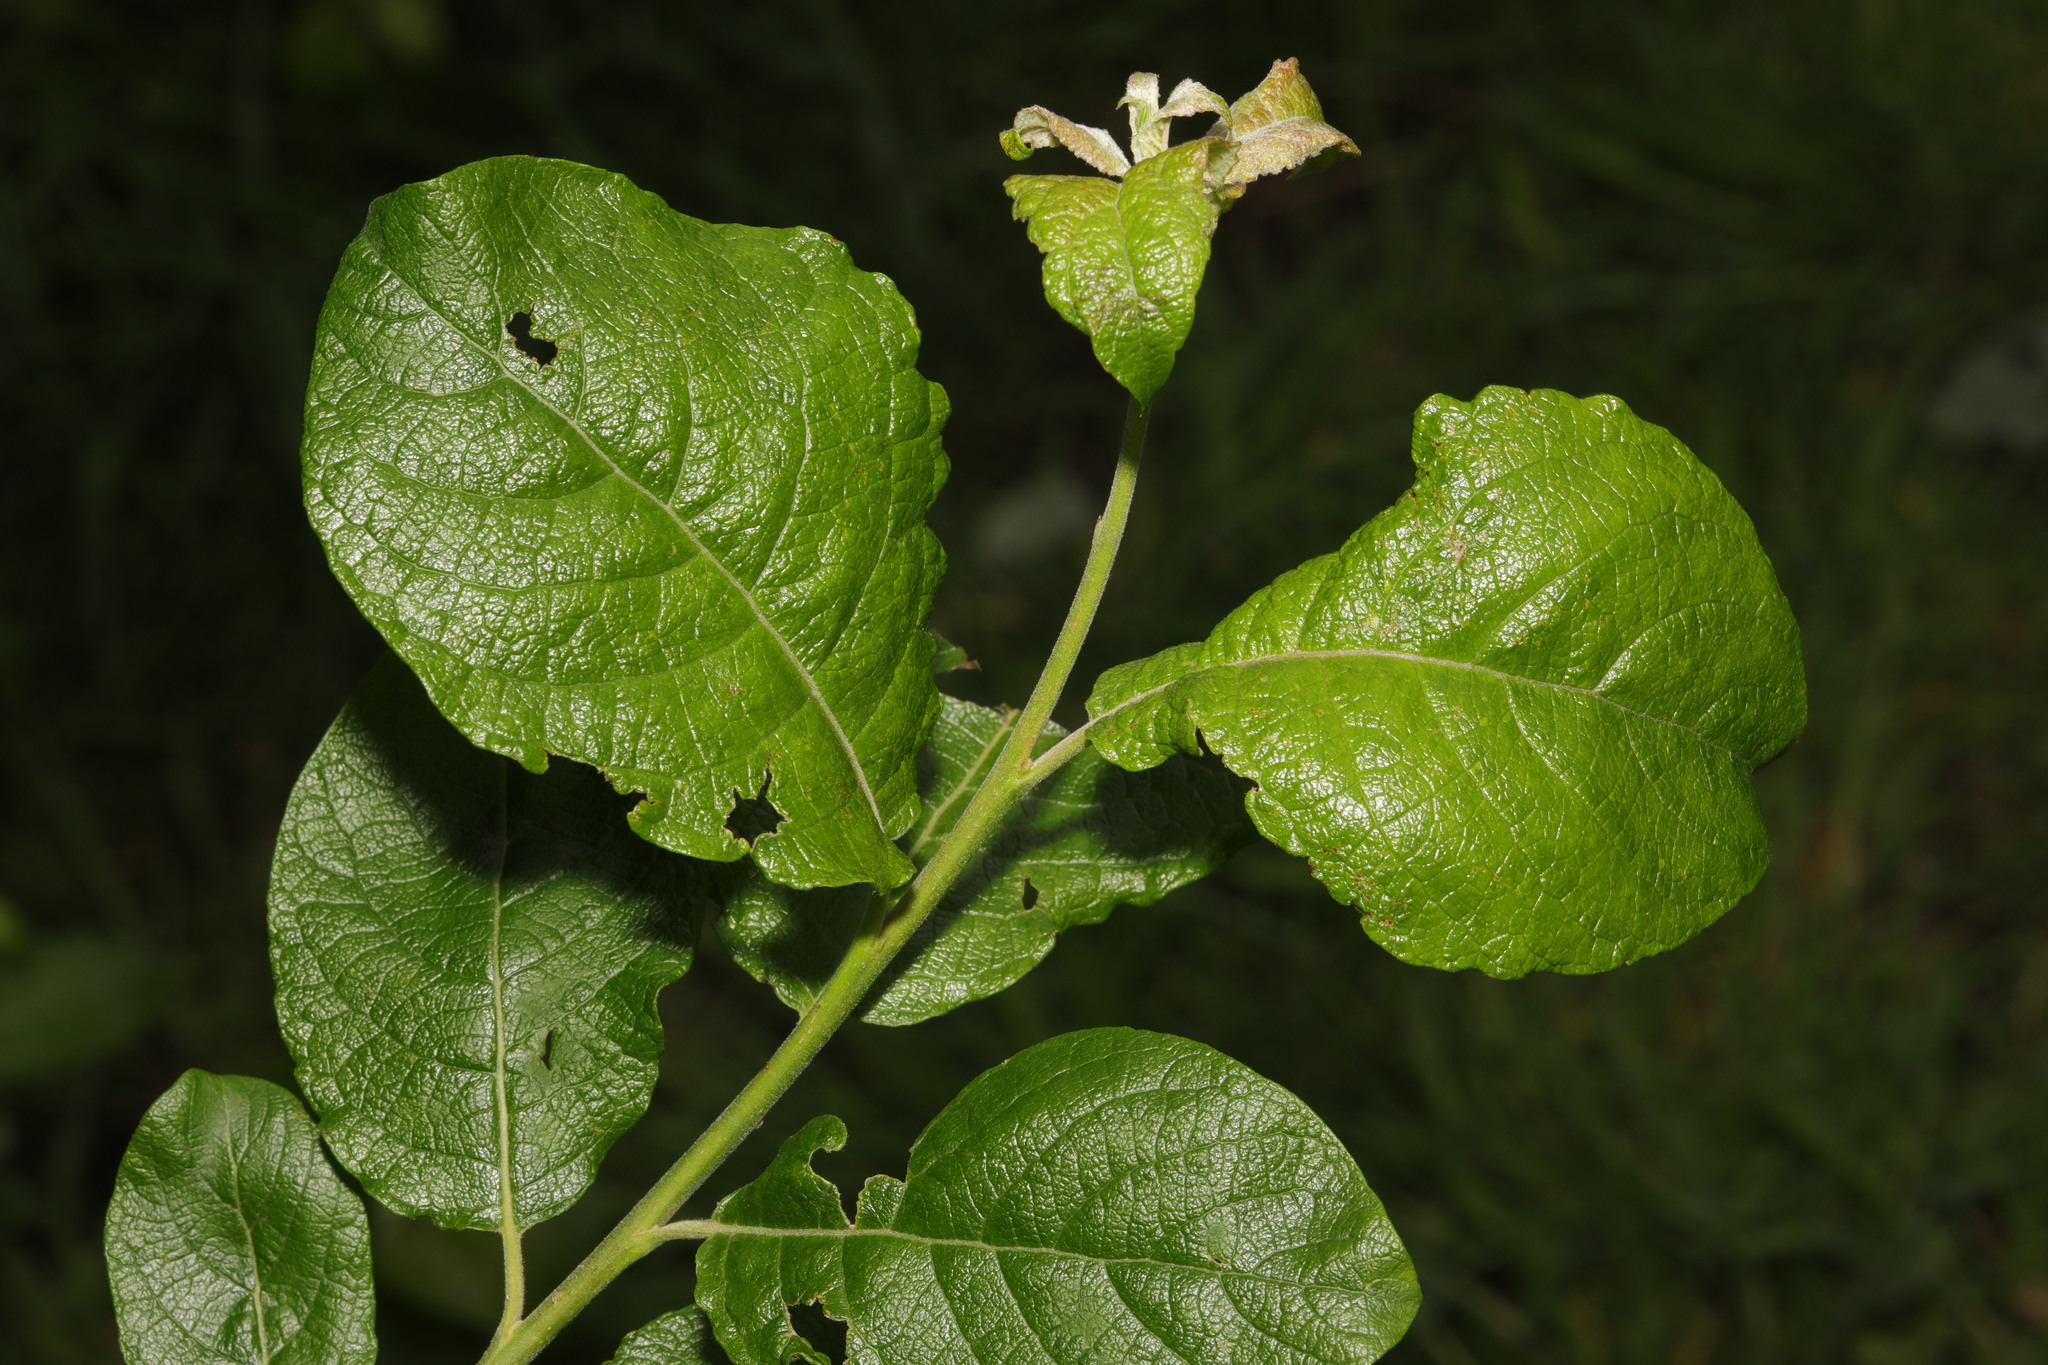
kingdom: Plantae
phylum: Tracheophyta
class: Magnoliopsida
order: Malpighiales
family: Salicaceae
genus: Salix
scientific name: Salix caprea
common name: Goat willow
